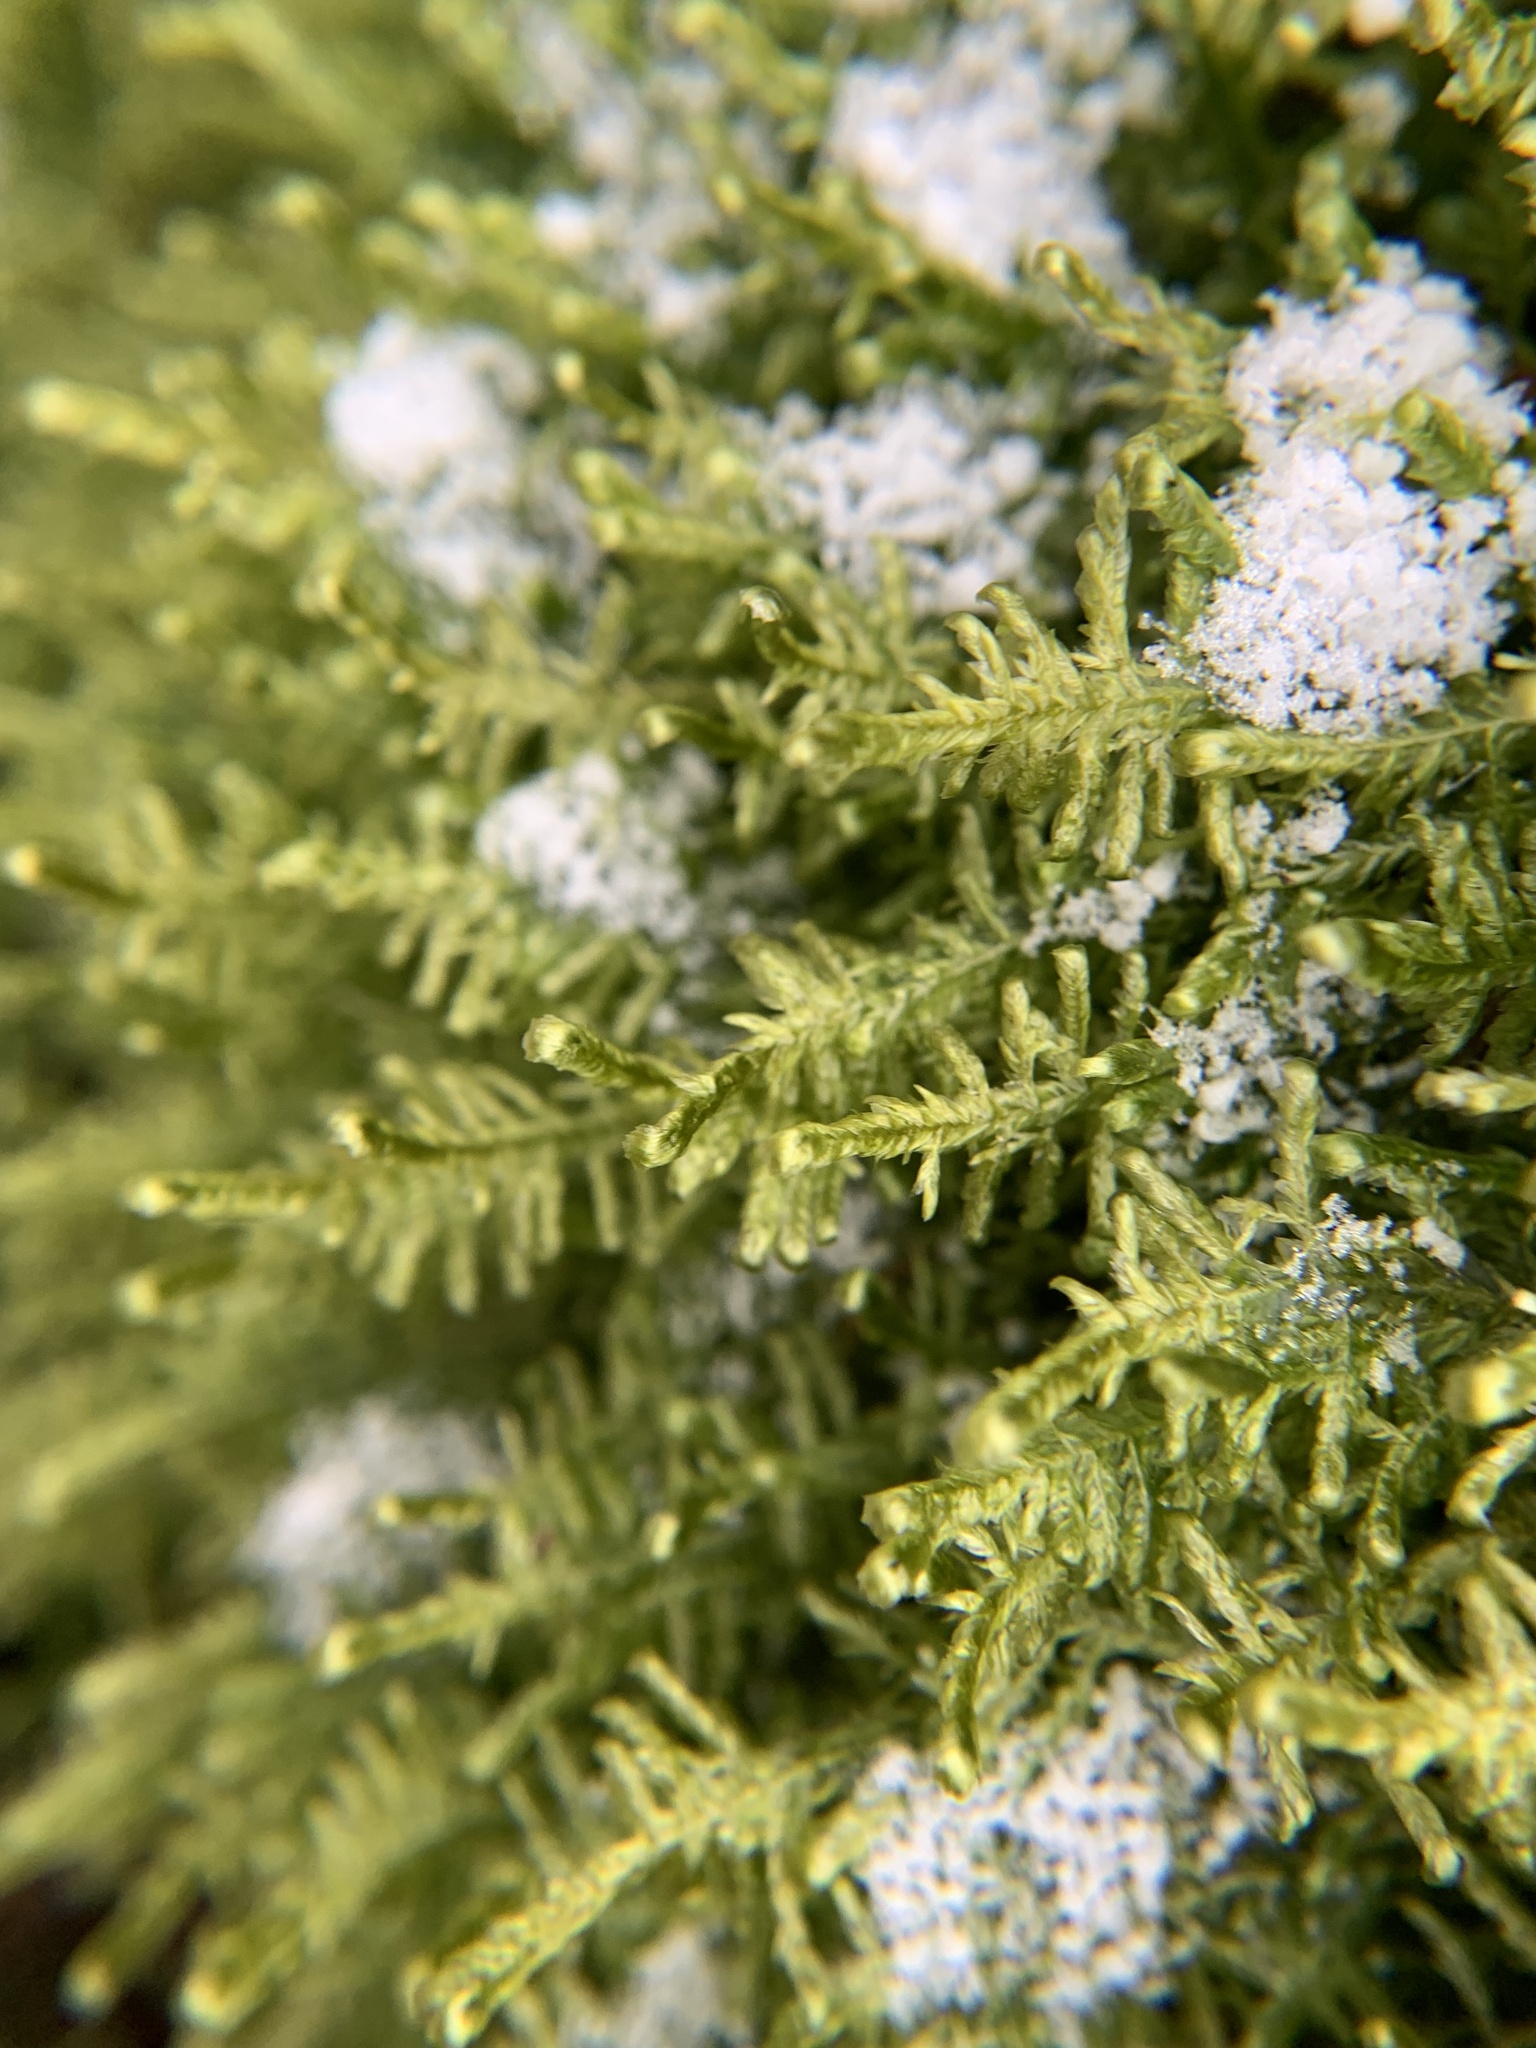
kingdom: Plantae
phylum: Bryophyta
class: Bryopsida
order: Hypnales
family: Neckeraceae
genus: Alleniella
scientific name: Alleniella complanata
